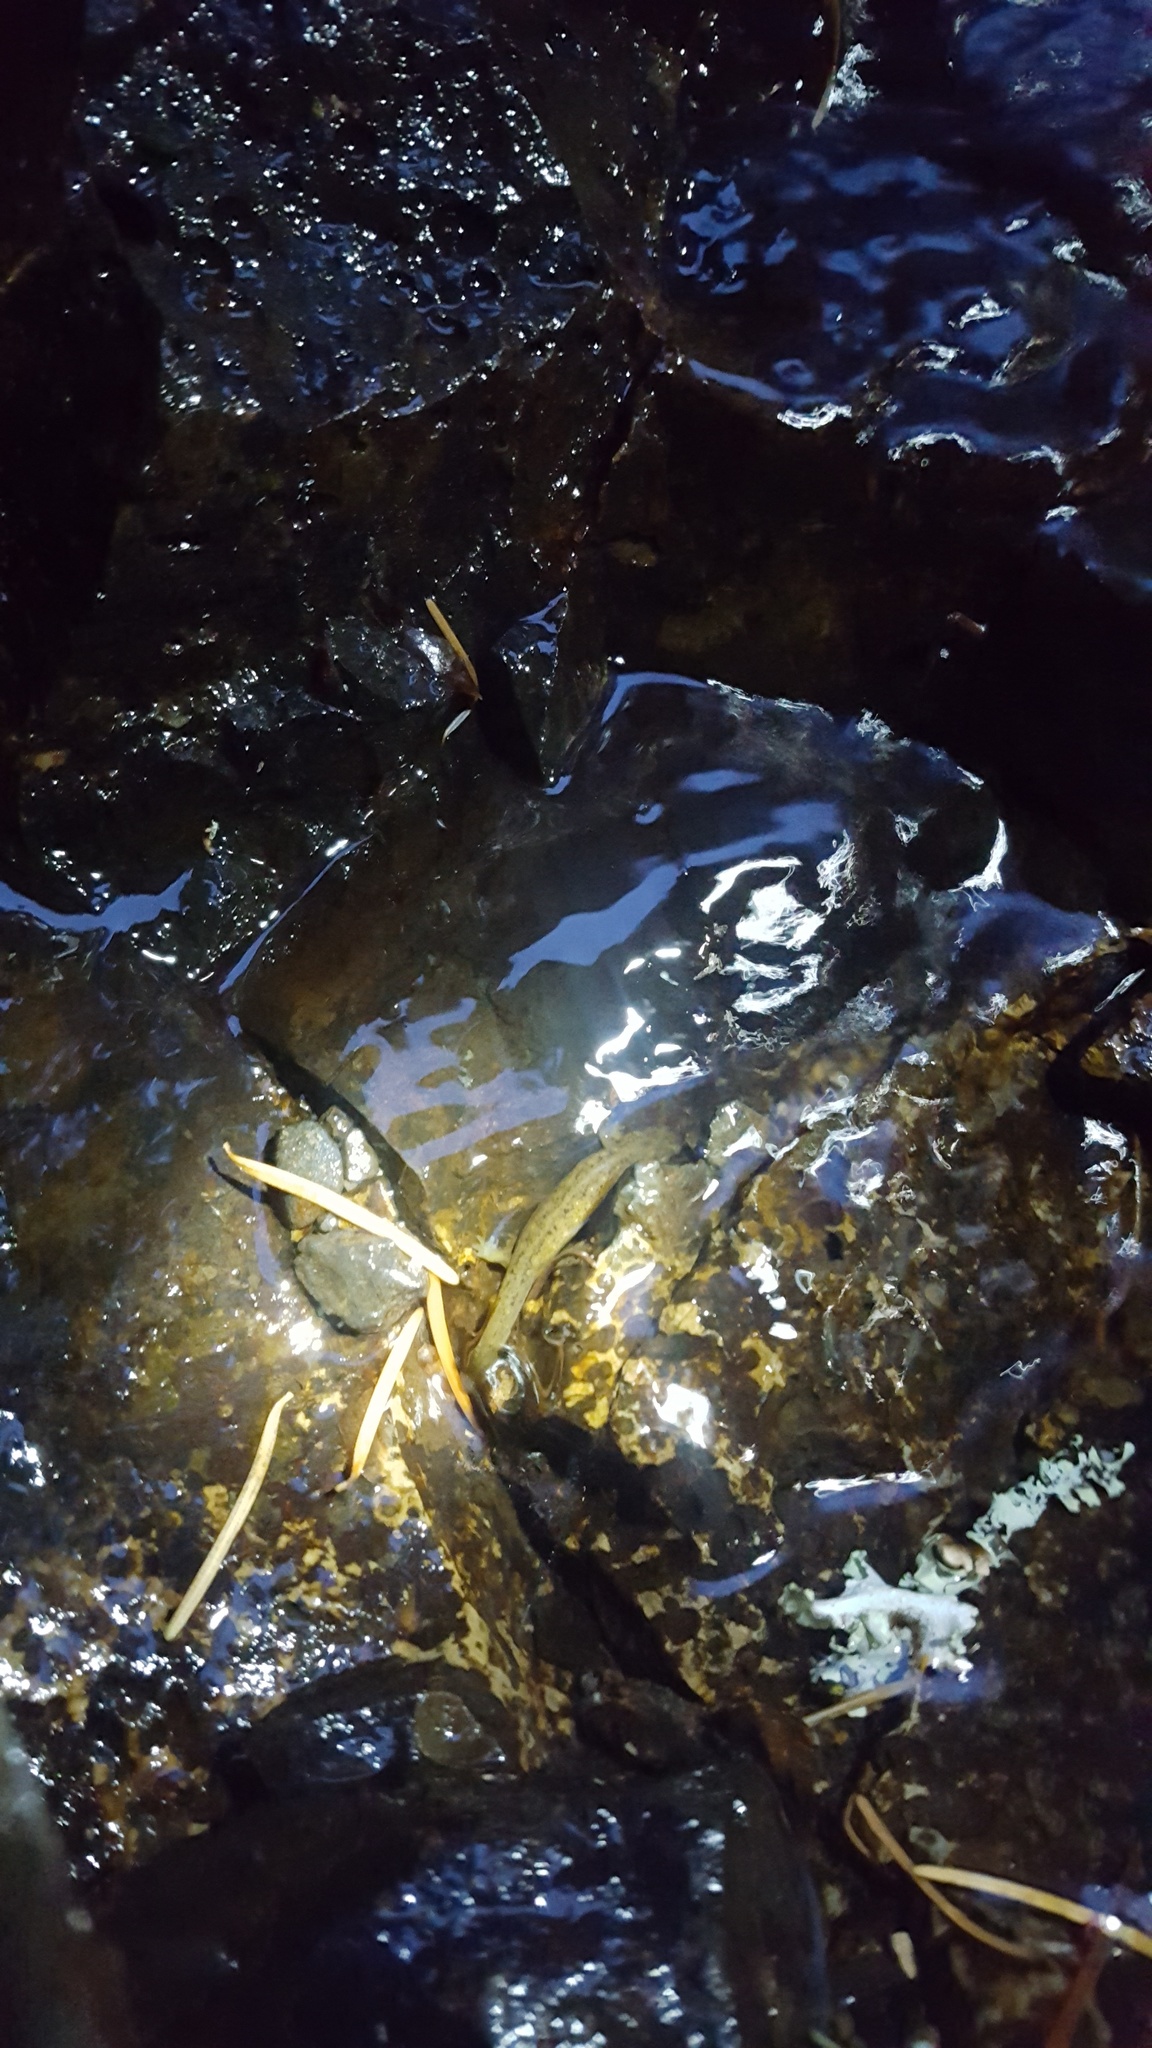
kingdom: Animalia
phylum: Chordata
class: Amphibia
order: Caudata
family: Rhyacotritonidae
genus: Rhyacotriton
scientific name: Rhyacotriton cascadae
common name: Cascade torrent salamander
